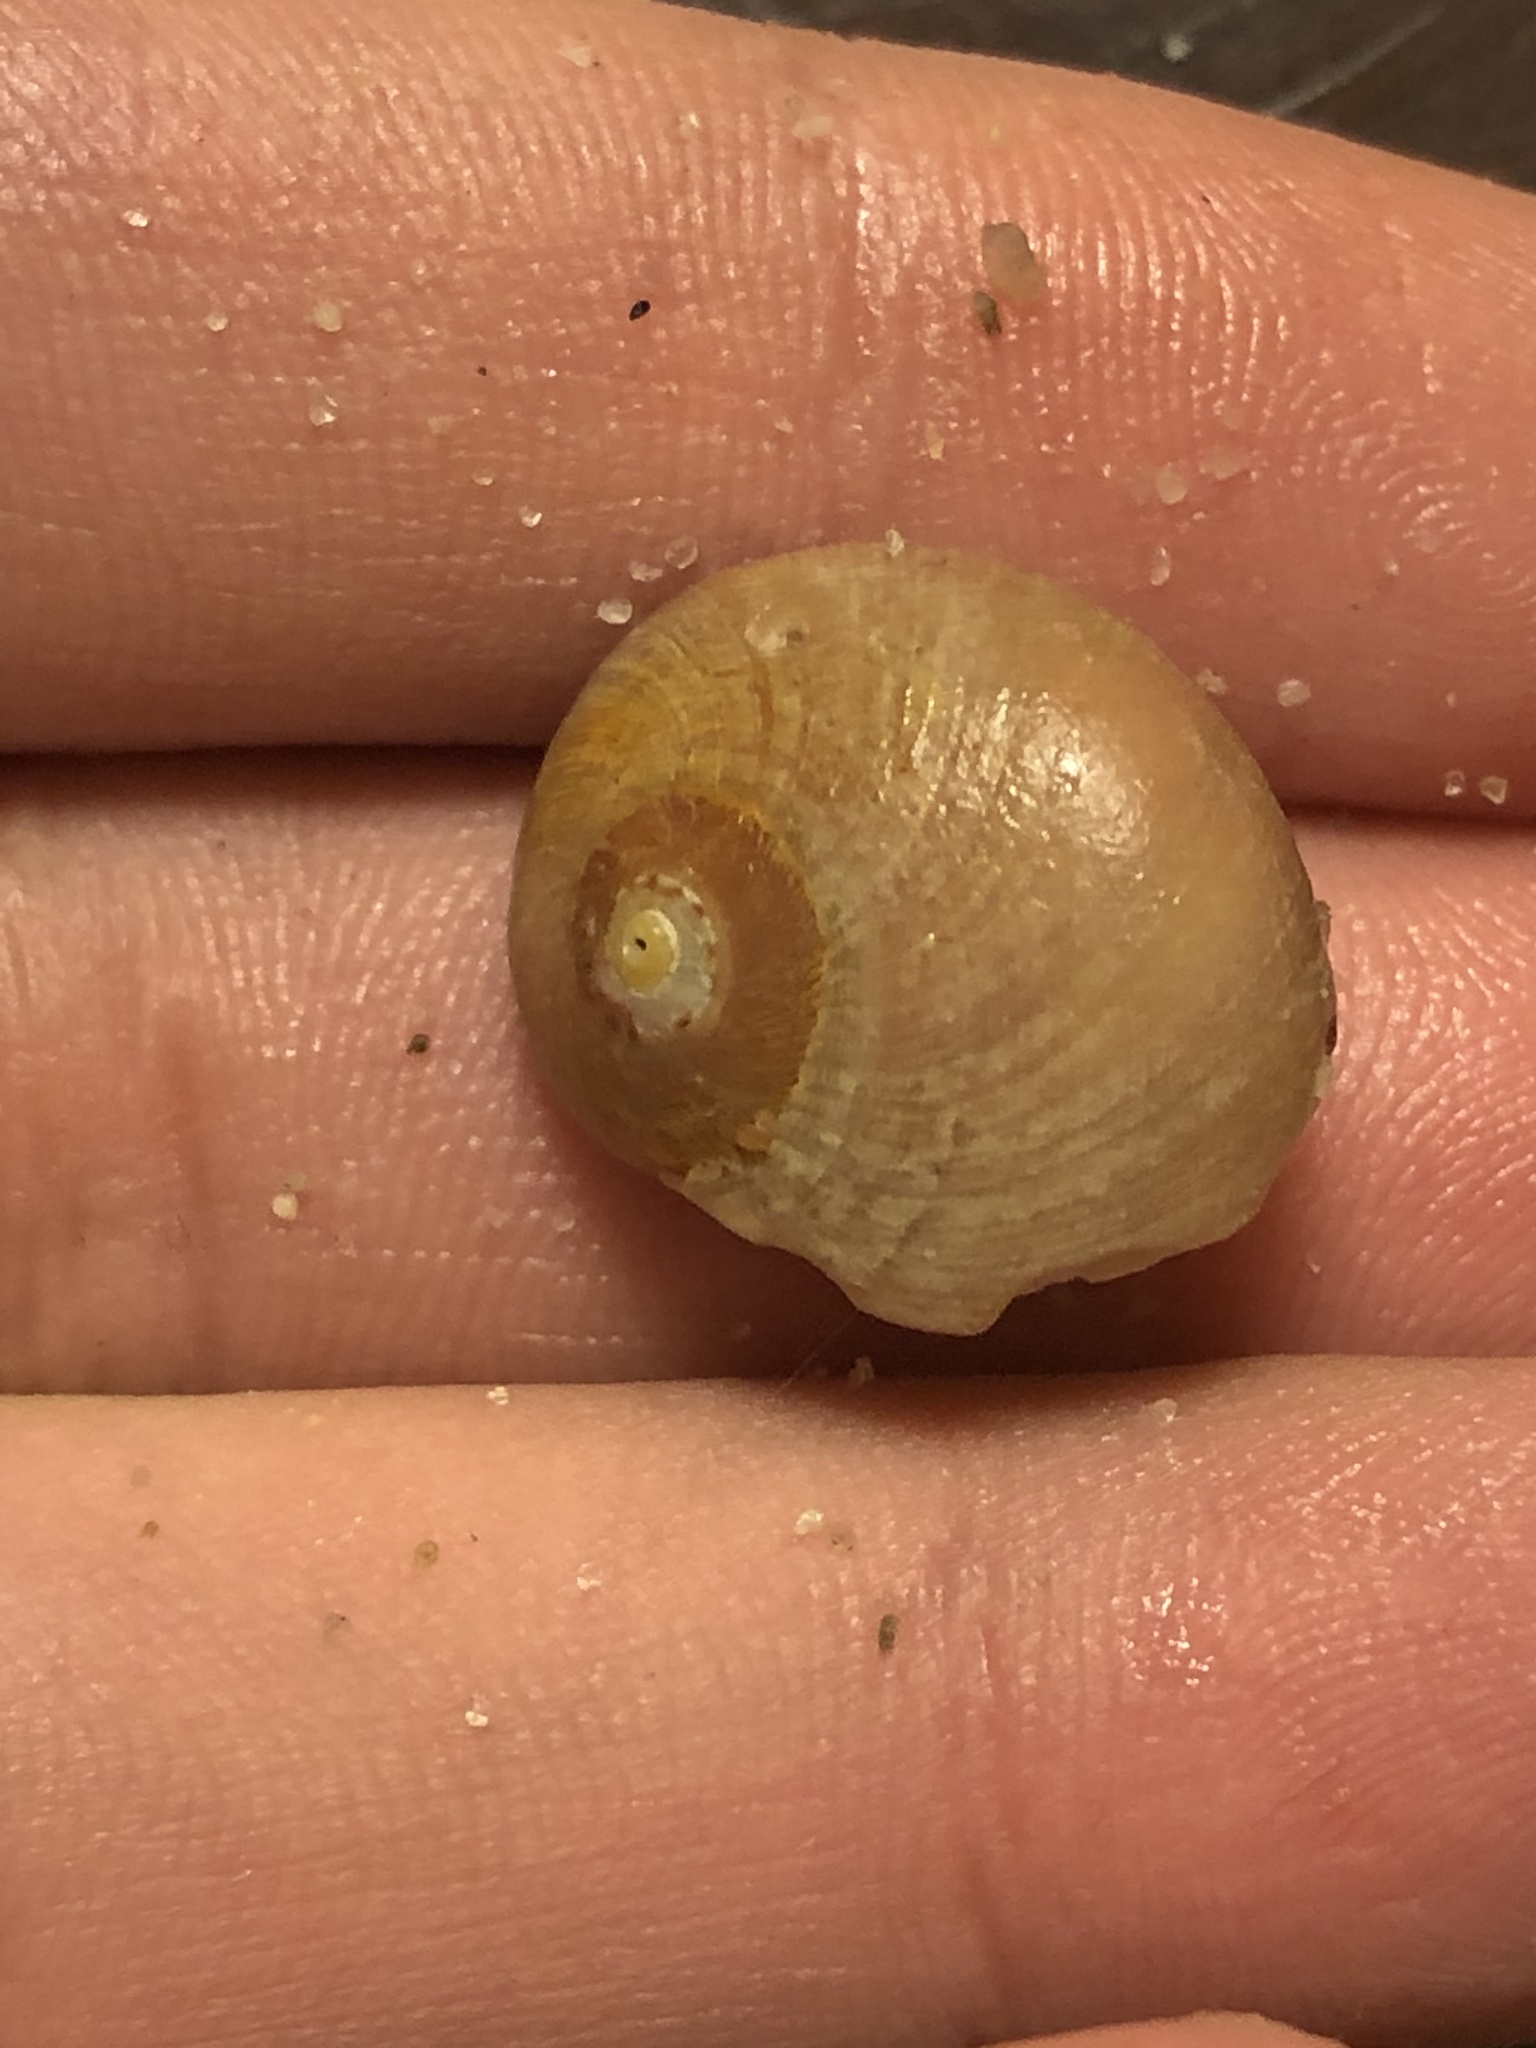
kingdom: Animalia
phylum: Mollusca
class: Gastropoda
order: Trochida
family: Tegulidae
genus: Norrisia
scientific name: Norrisia norrisii
